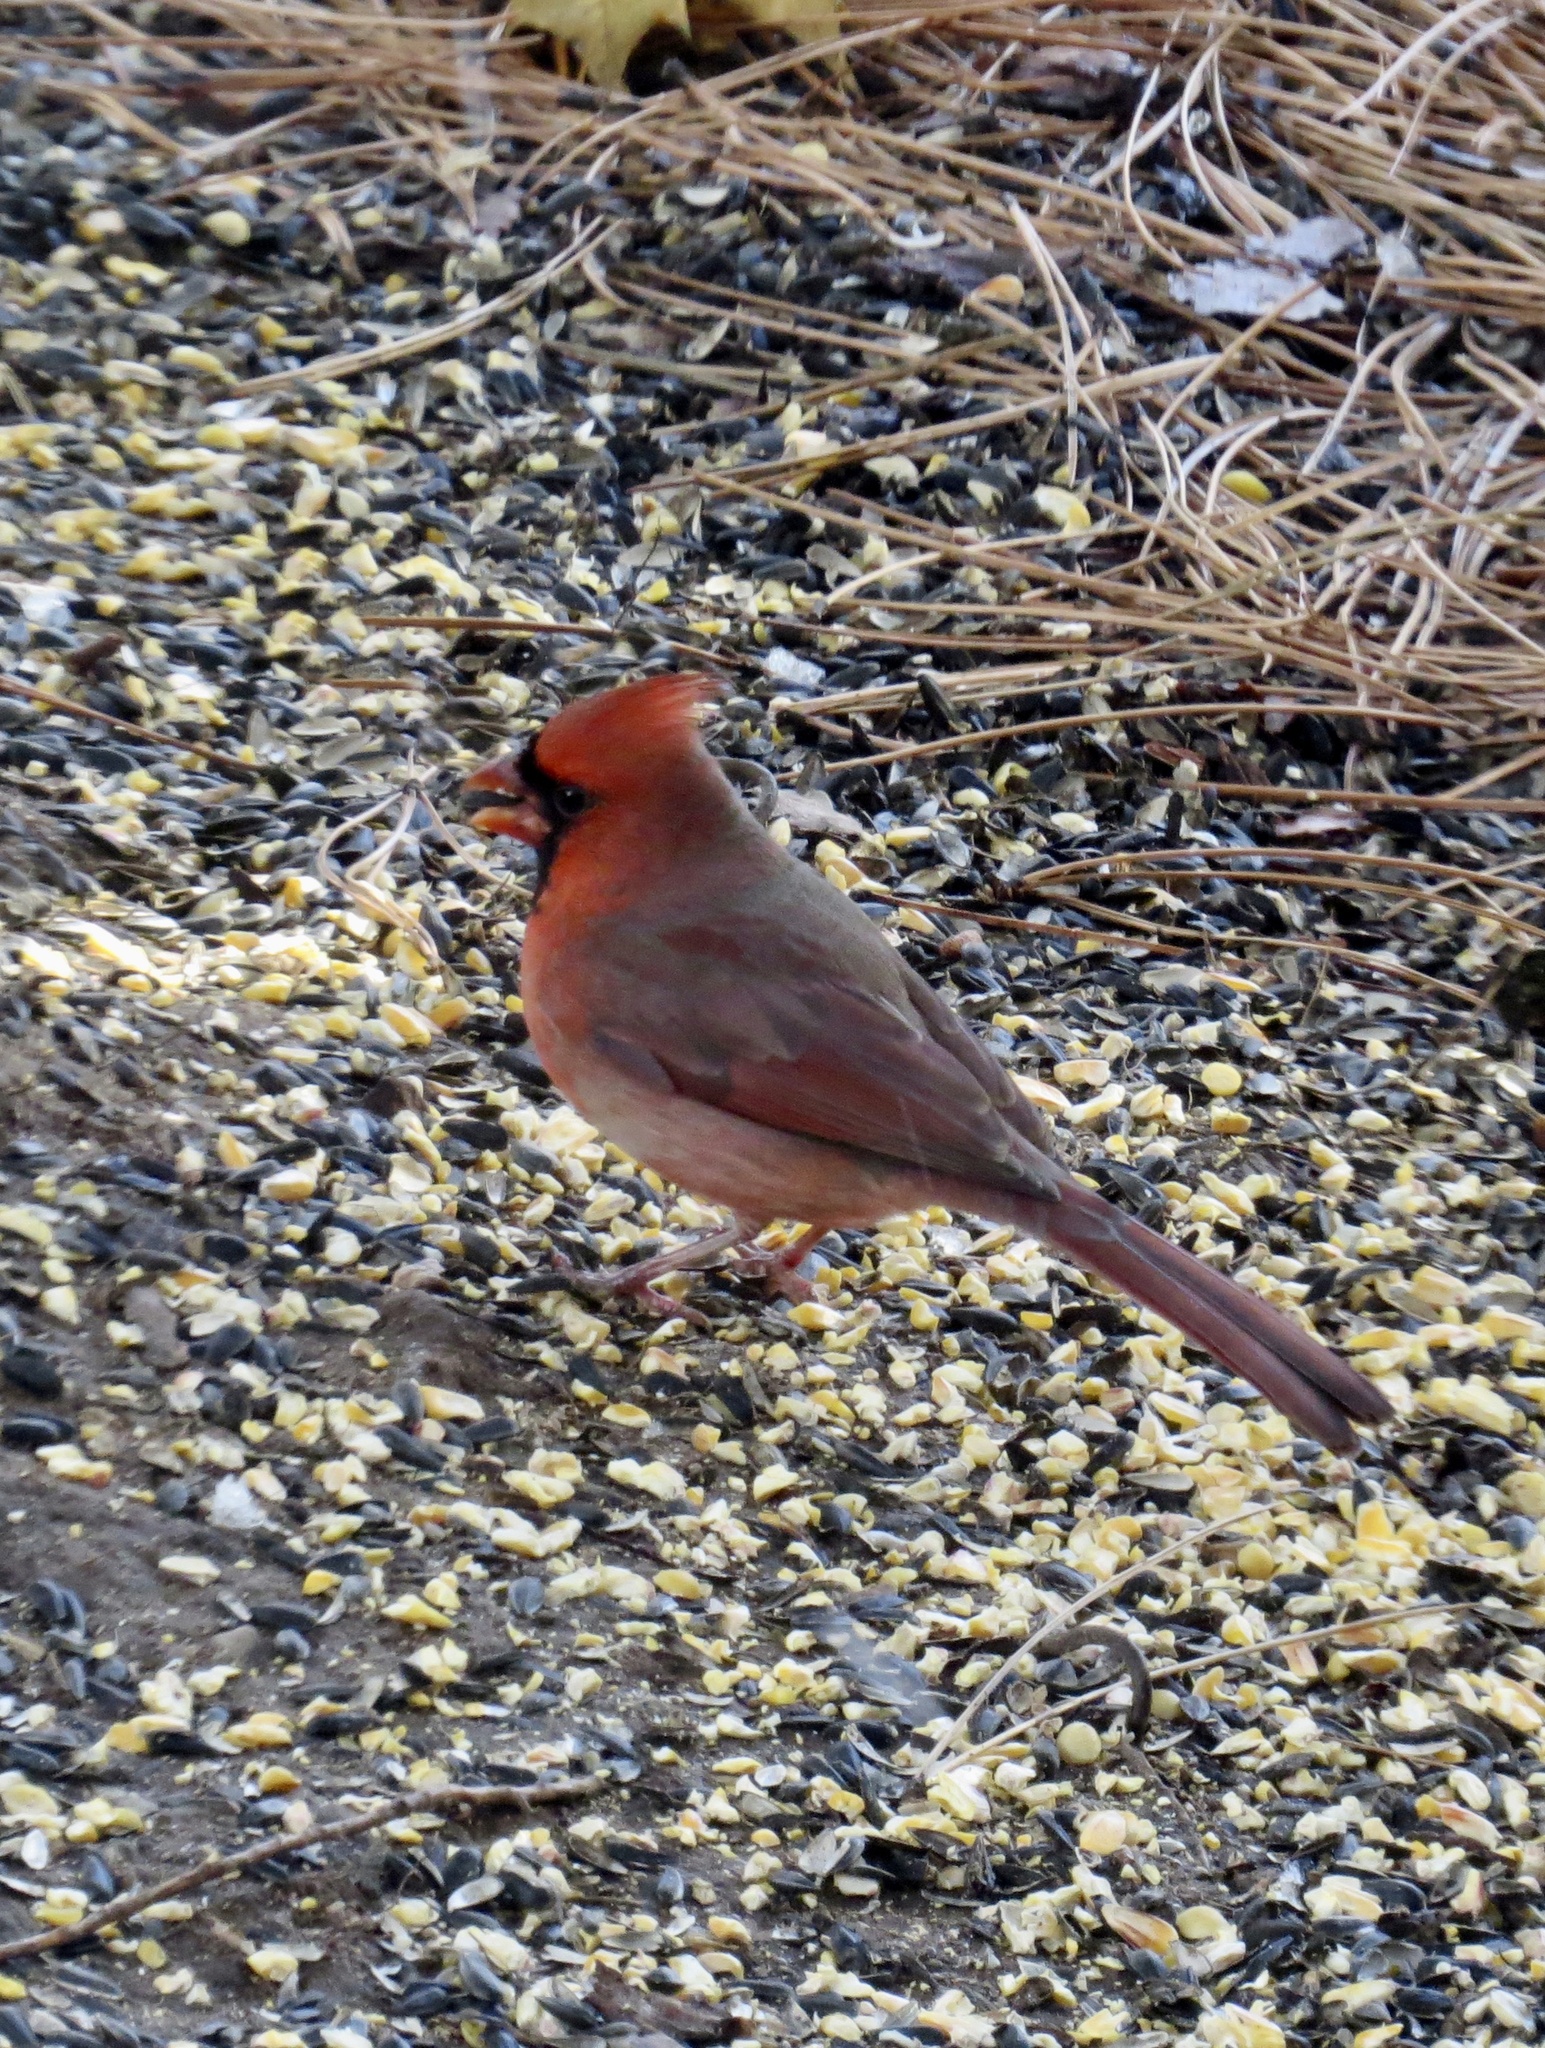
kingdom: Animalia
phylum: Chordata
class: Aves
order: Passeriformes
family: Cardinalidae
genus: Cardinalis
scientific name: Cardinalis cardinalis
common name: Northern cardinal
